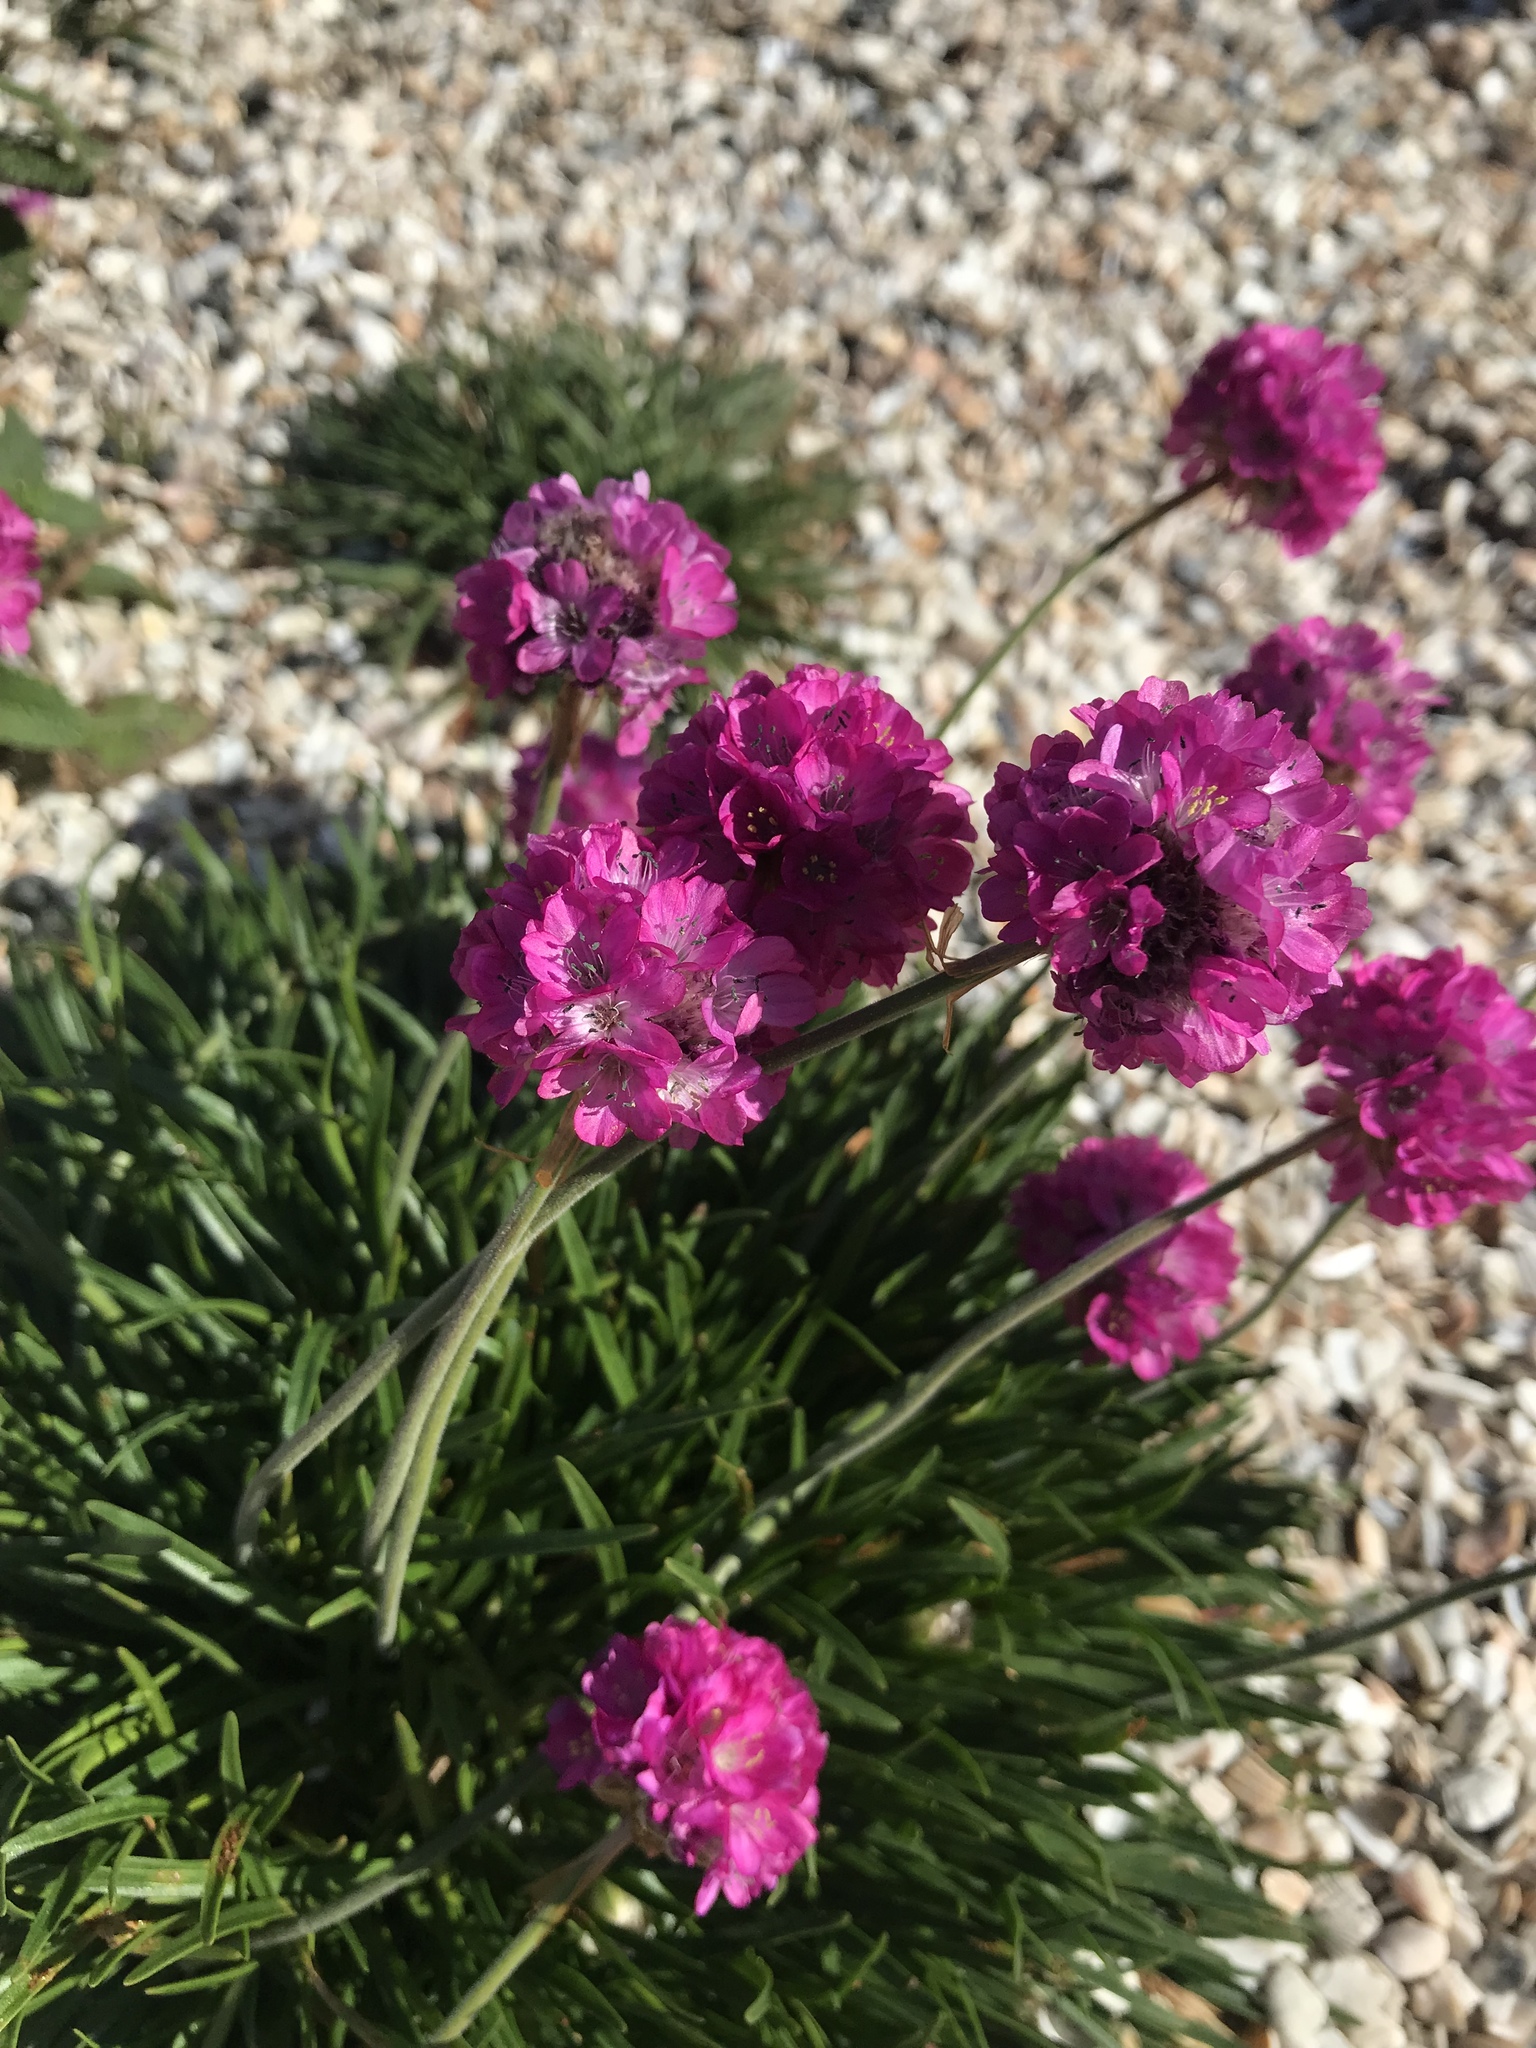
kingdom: Plantae
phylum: Tracheophyta
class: Magnoliopsida
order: Caryophyllales
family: Plumbaginaceae
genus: Armeria
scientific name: Armeria maritima
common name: Thrift
